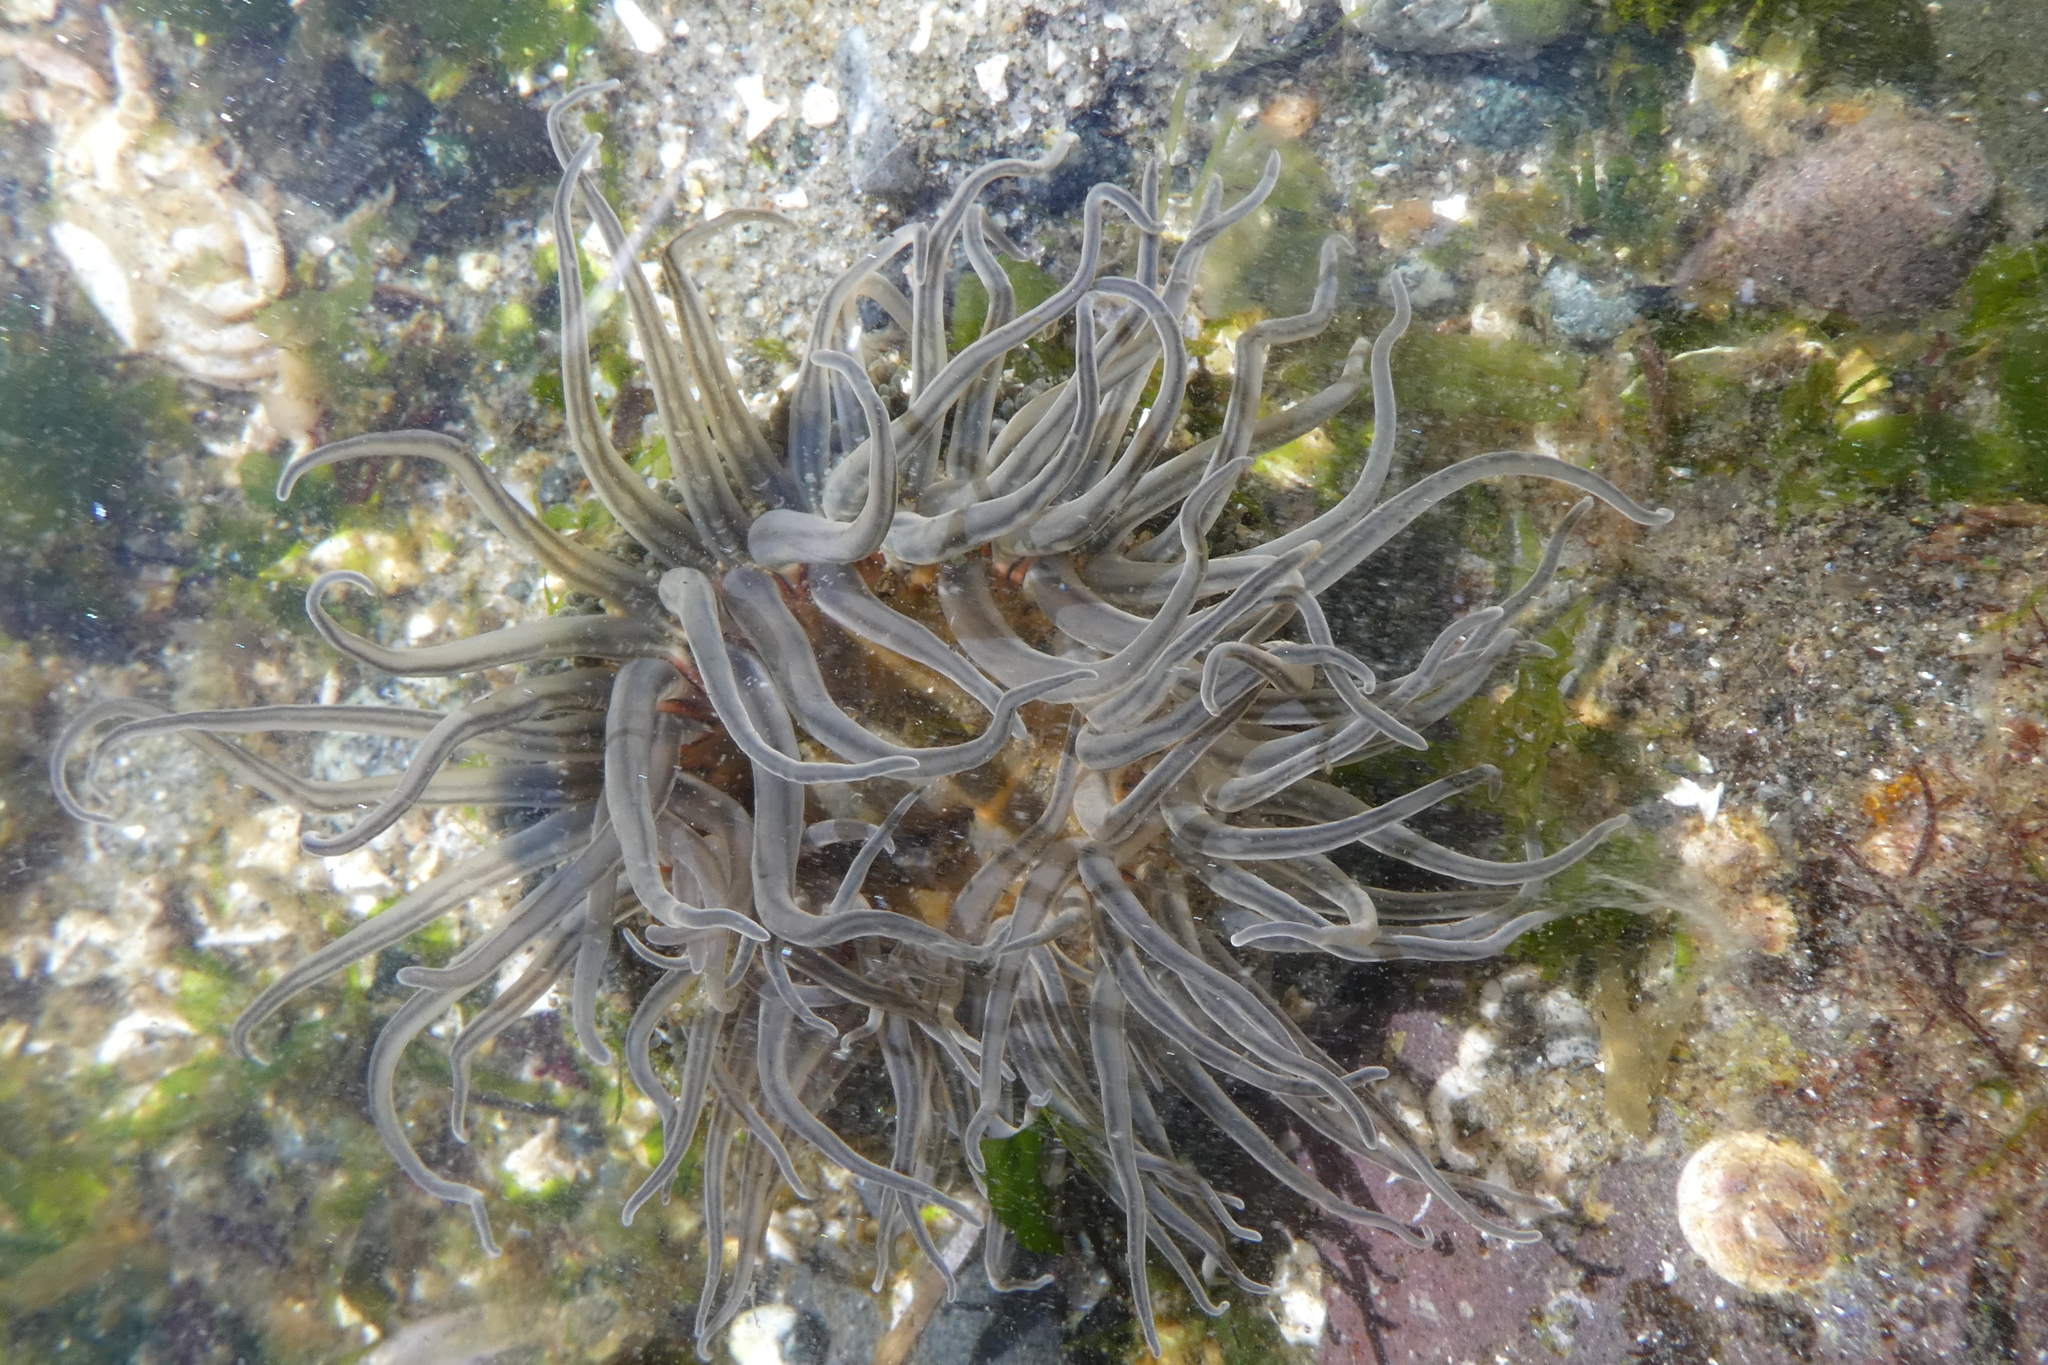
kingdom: Animalia
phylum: Cnidaria
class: Anthozoa
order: Actiniaria
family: Actiniidae
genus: Anthopleura
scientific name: Anthopleura artemisia
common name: Buried sea anemone
